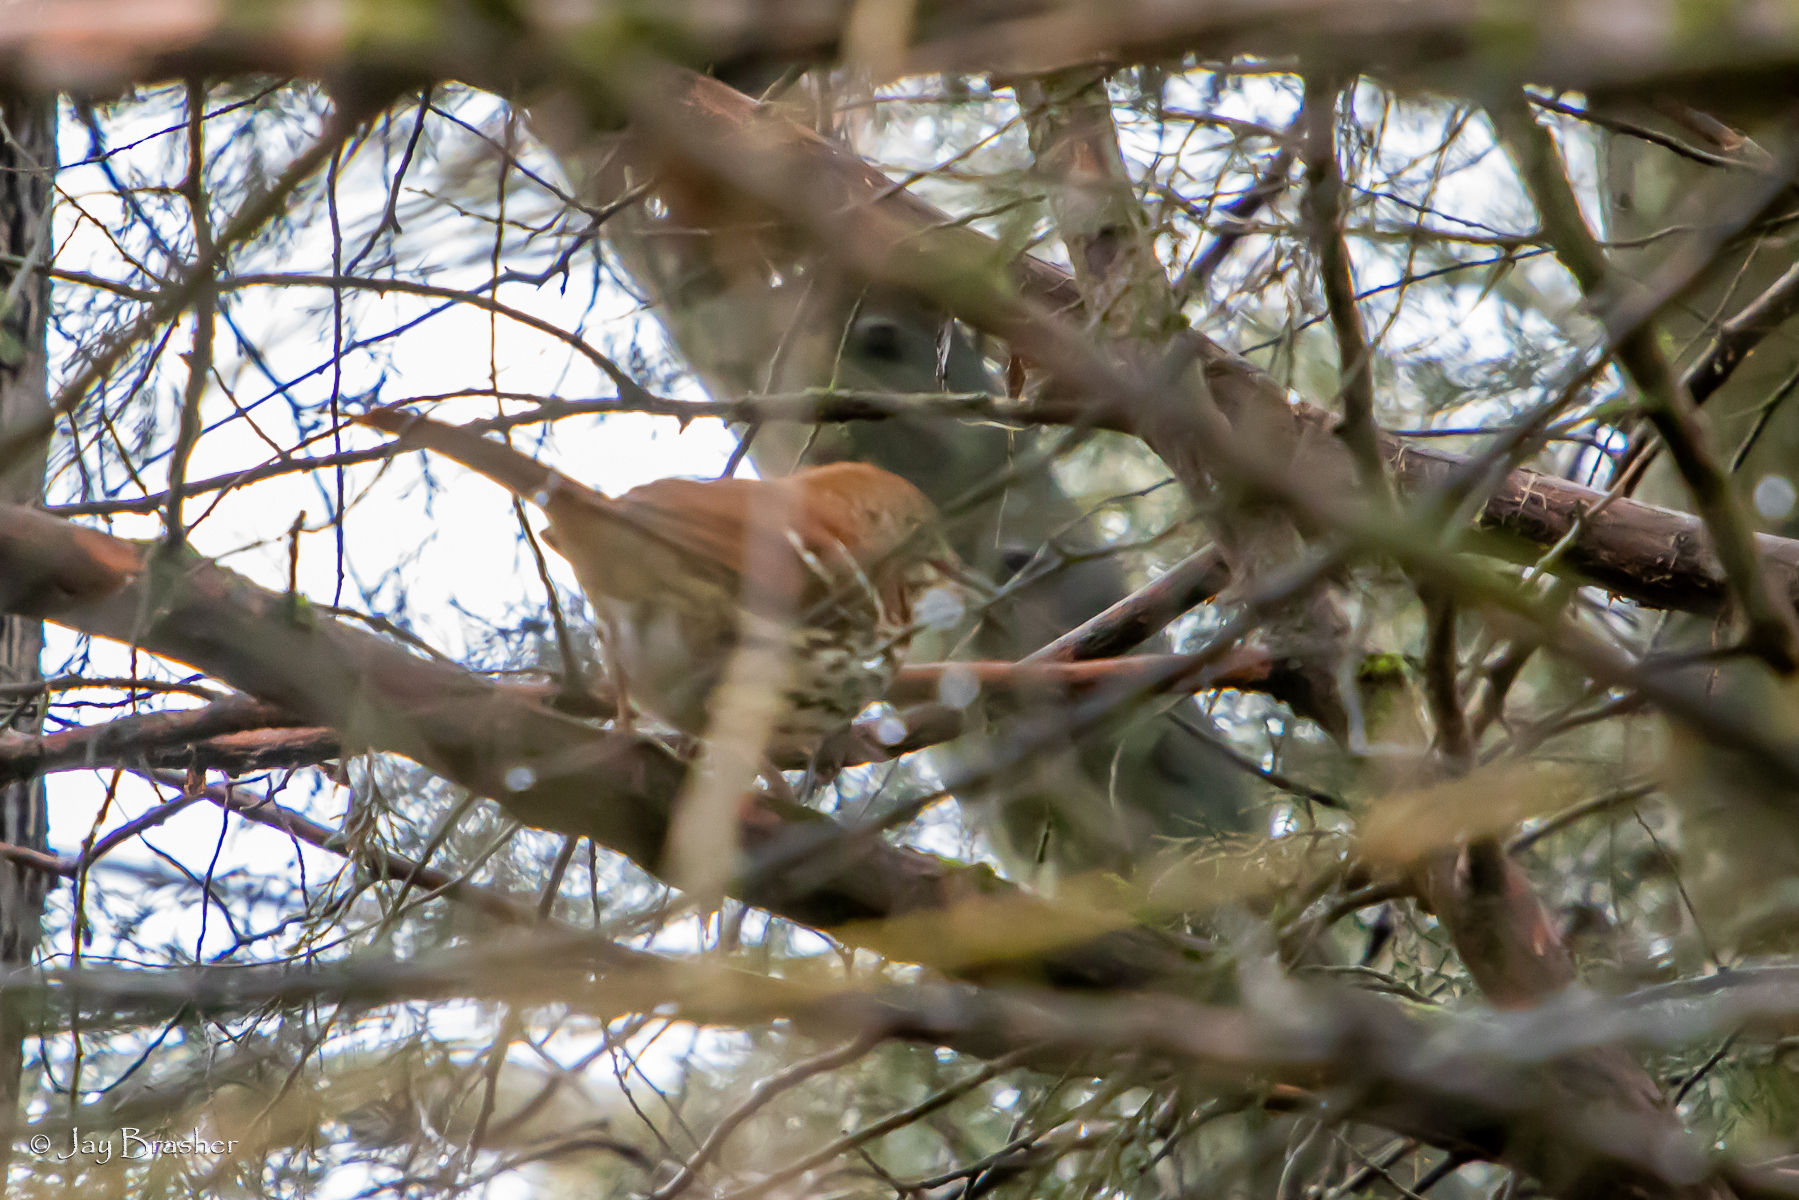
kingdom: Animalia
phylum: Chordata
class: Aves
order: Passeriformes
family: Mimidae
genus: Toxostoma
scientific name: Toxostoma rufum
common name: Brown thrasher
